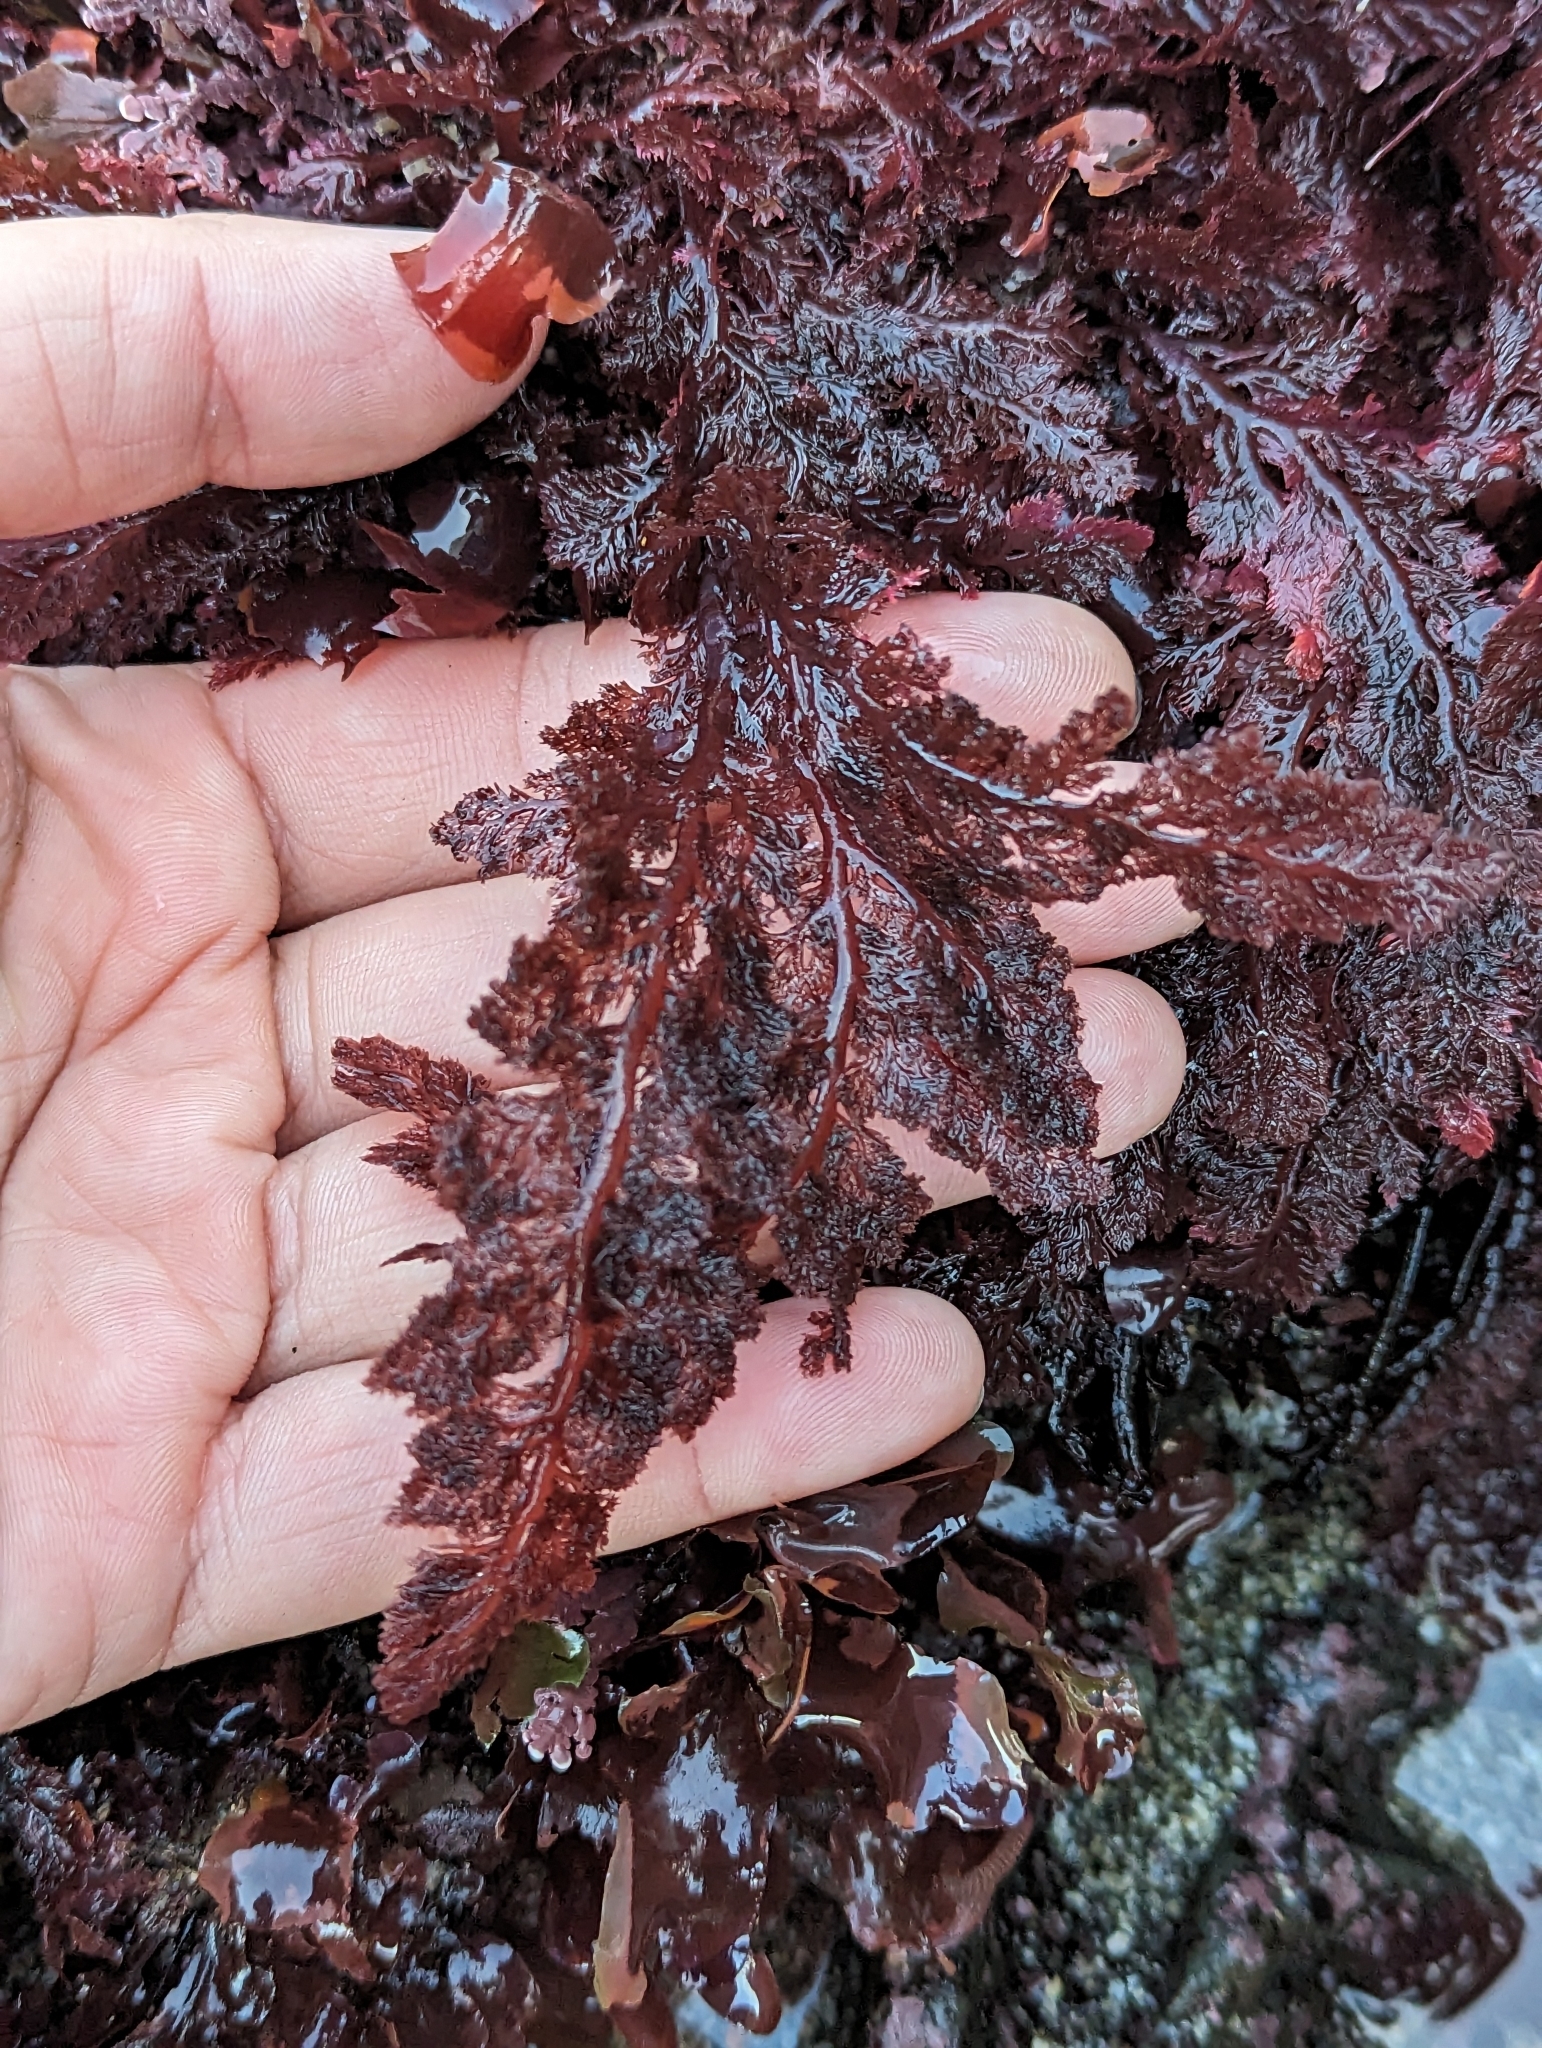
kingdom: Plantae
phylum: Rhodophyta
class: Florideophyceae
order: Plocamiales
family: Plocamiaceae
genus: Plocamium
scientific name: Plocamium cartilagineum
